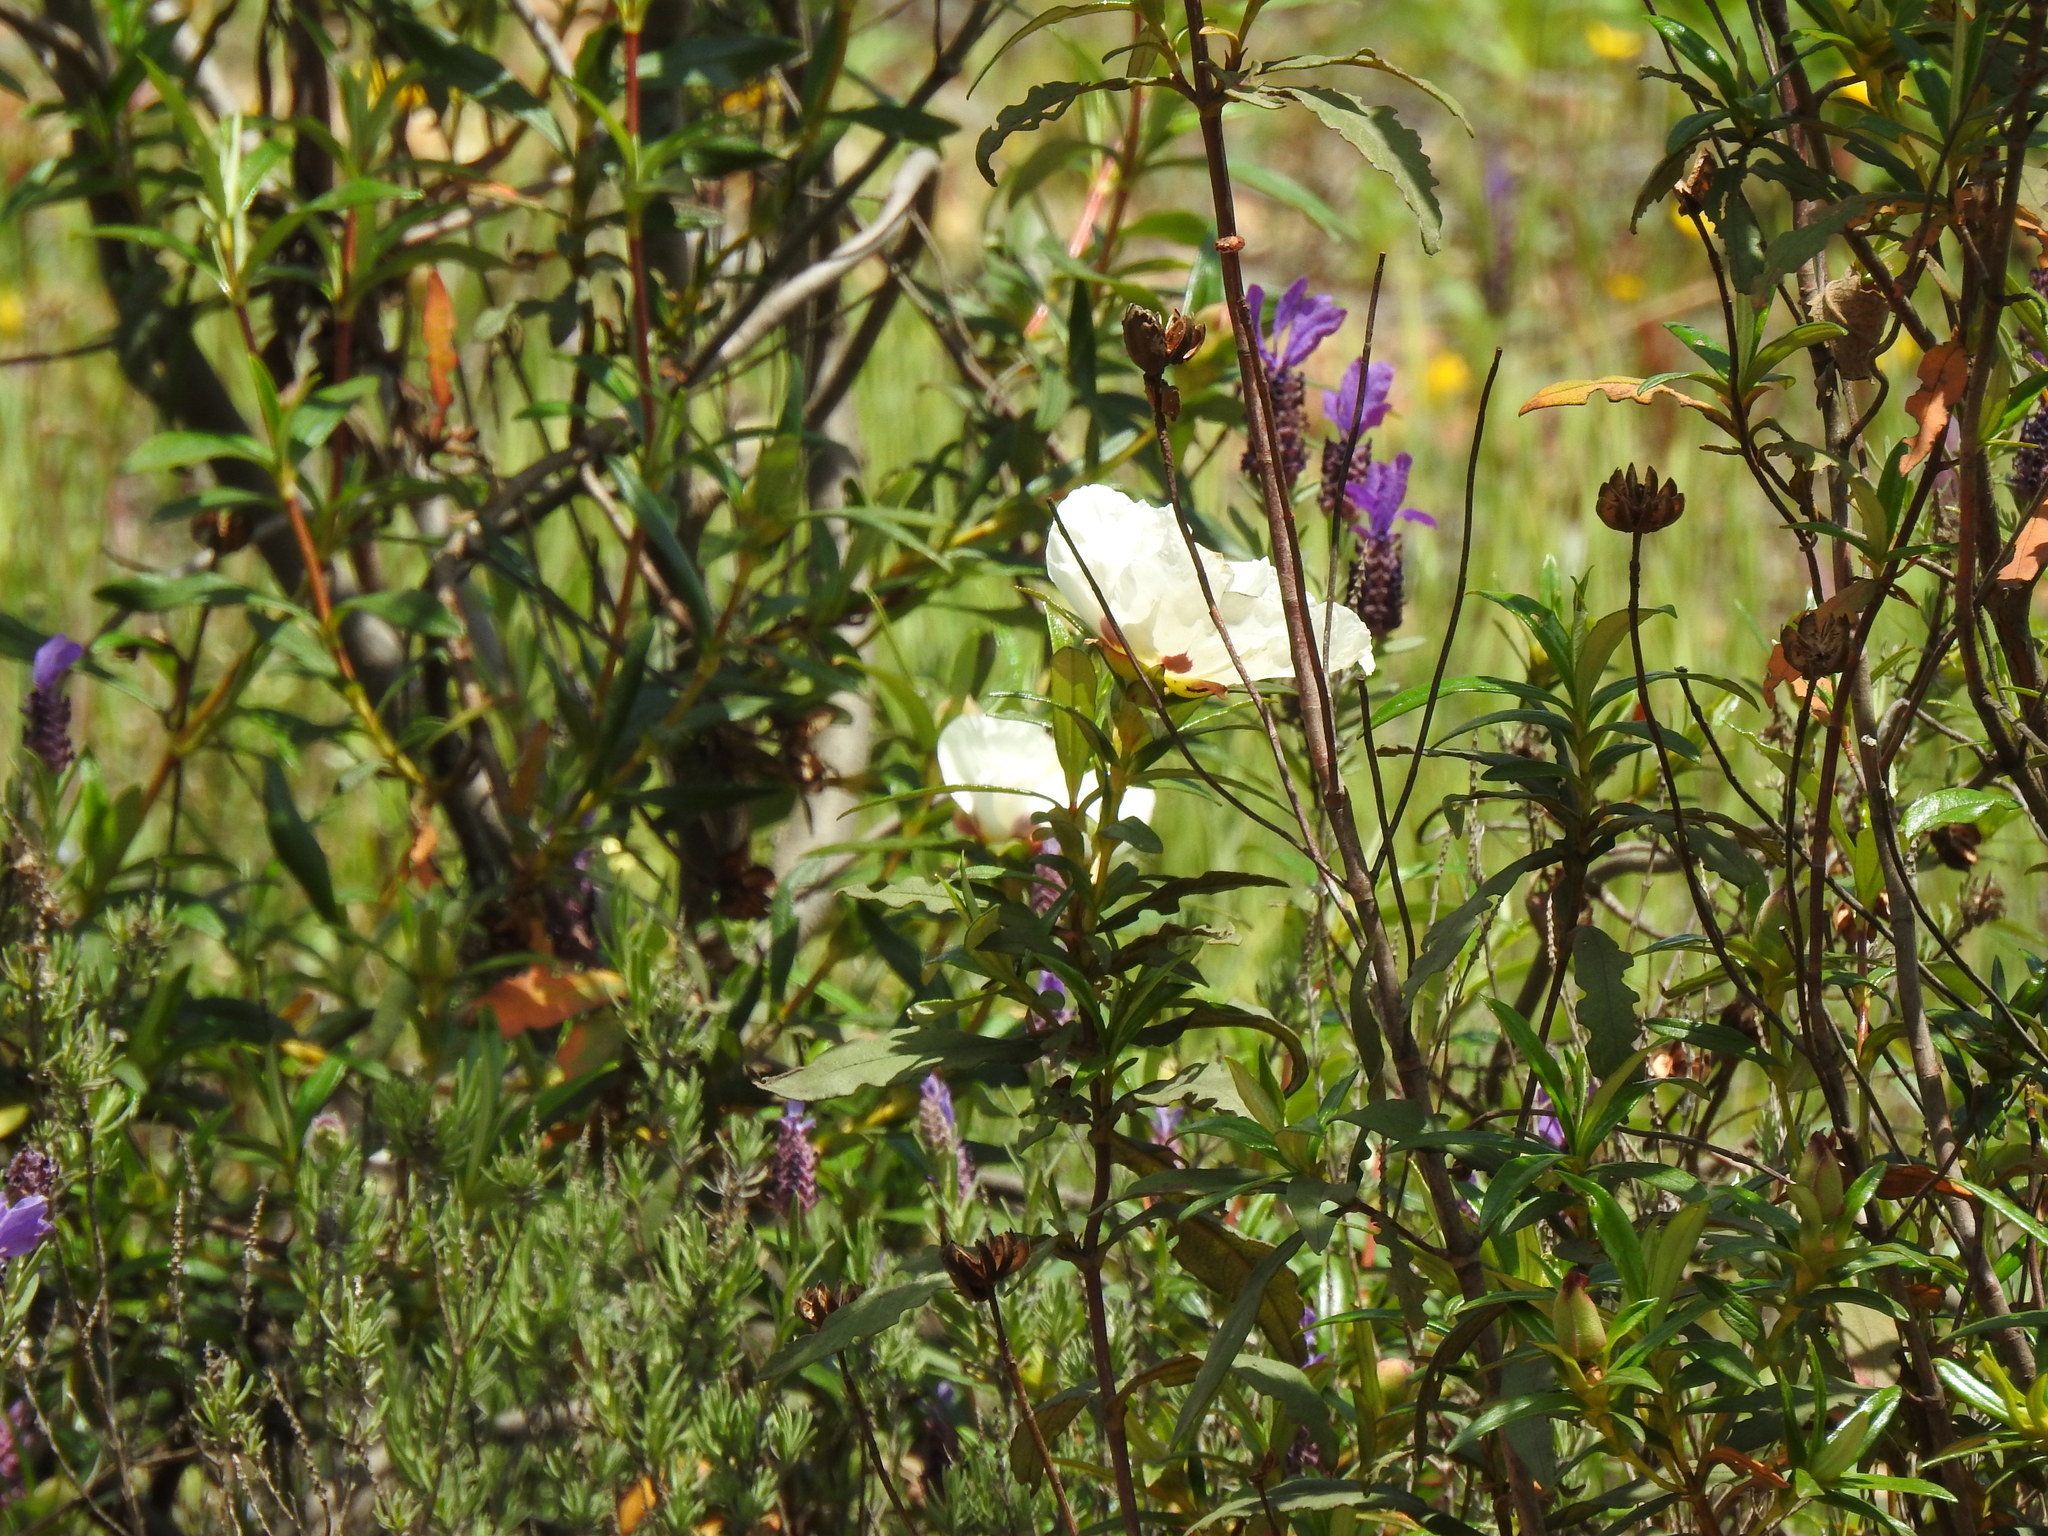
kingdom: Plantae
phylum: Tracheophyta
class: Magnoliopsida
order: Malvales
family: Cistaceae
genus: Cistus
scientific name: Cistus ladanifer
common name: Common gum cistus
